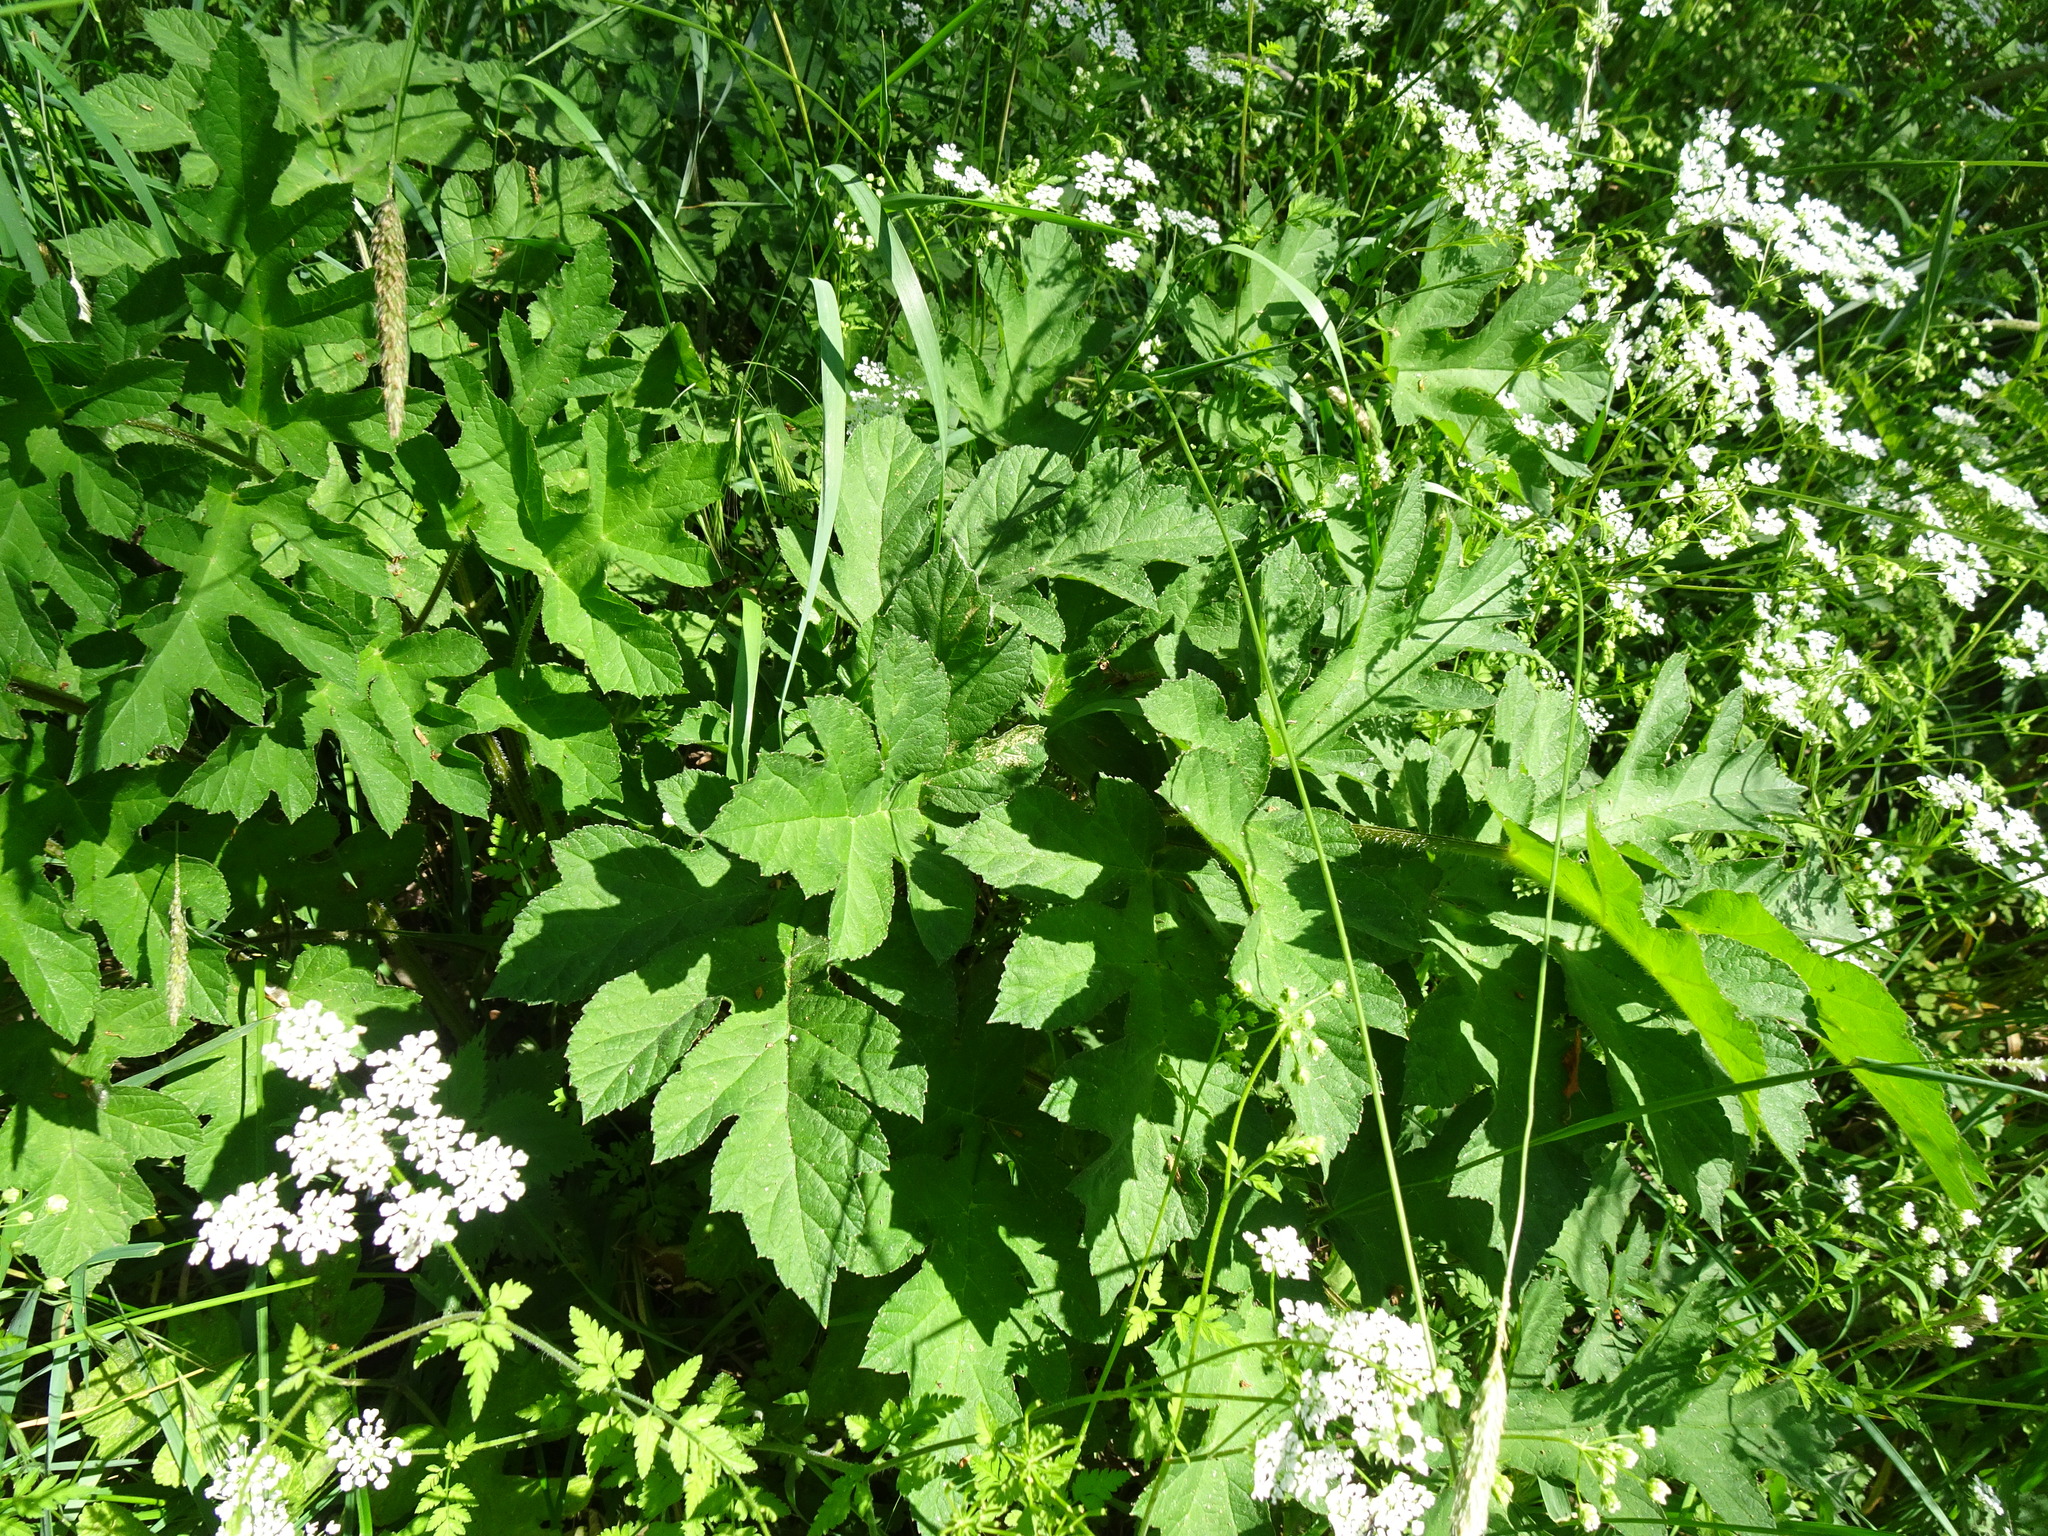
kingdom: Plantae
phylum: Tracheophyta
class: Magnoliopsida
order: Apiales
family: Apiaceae
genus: Heracleum
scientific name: Heracleum sphondylium
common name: Hogweed
